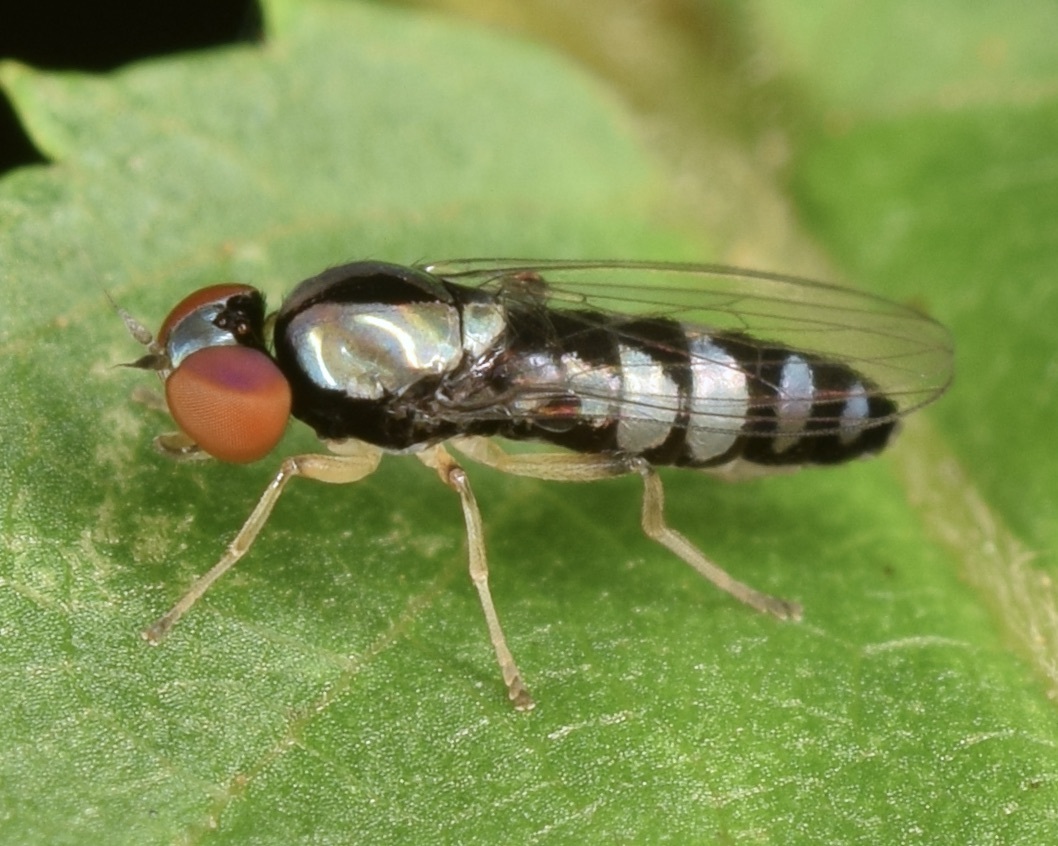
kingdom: Animalia
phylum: Arthropoda
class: Insecta
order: Diptera
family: Platypezidae
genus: Bertamyia
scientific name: Bertamyia notata
